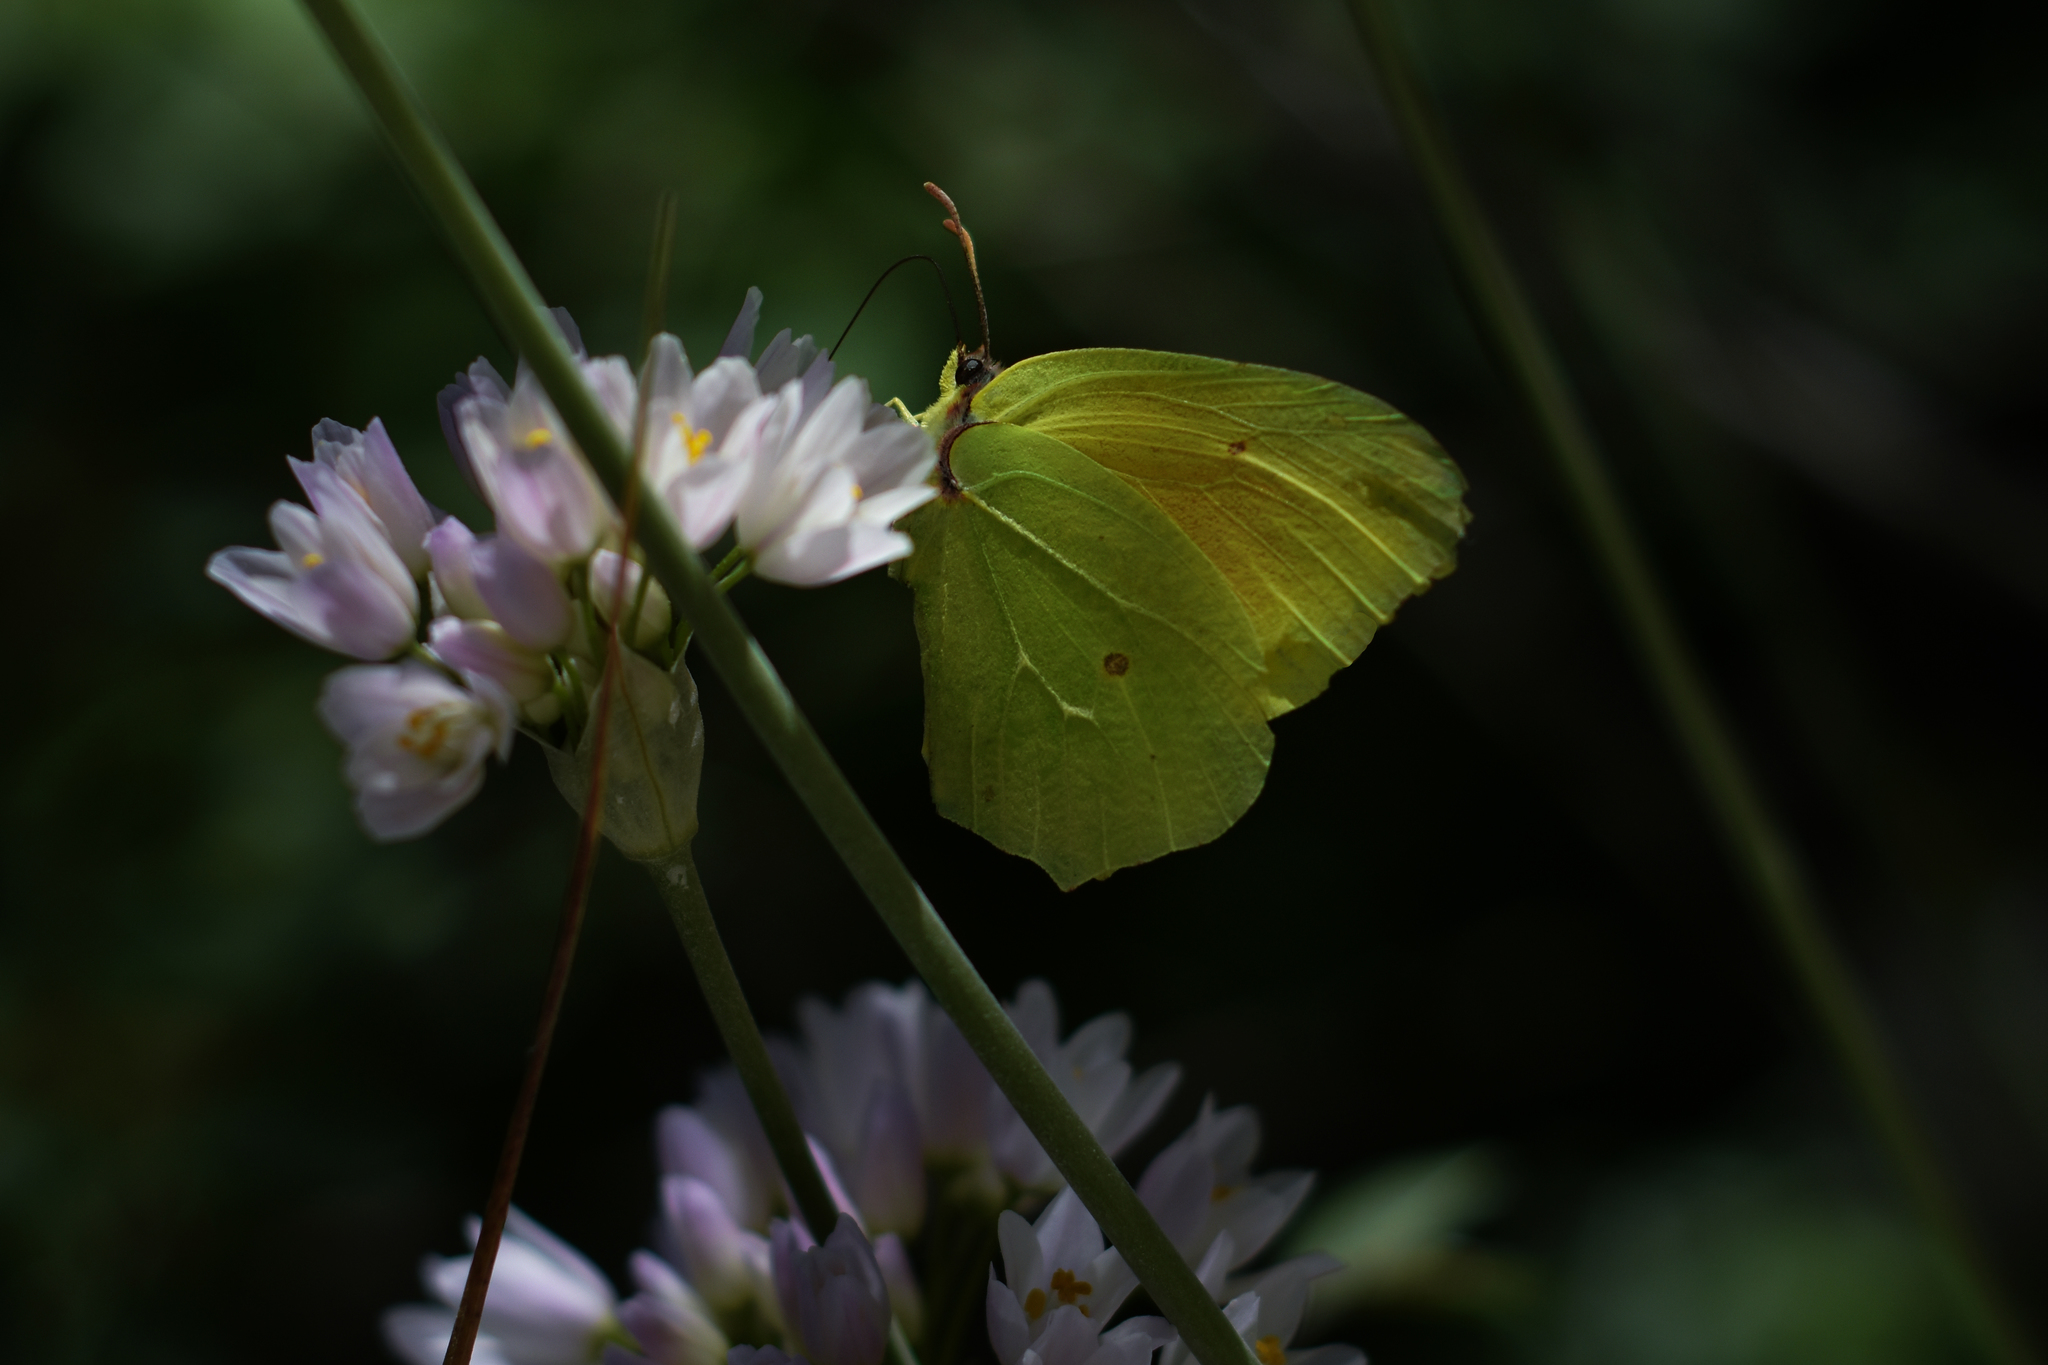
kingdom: Animalia
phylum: Arthropoda
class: Insecta
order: Lepidoptera
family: Pieridae
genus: Gonepteryx
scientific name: Gonepteryx cleopatra
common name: Cleopatra
